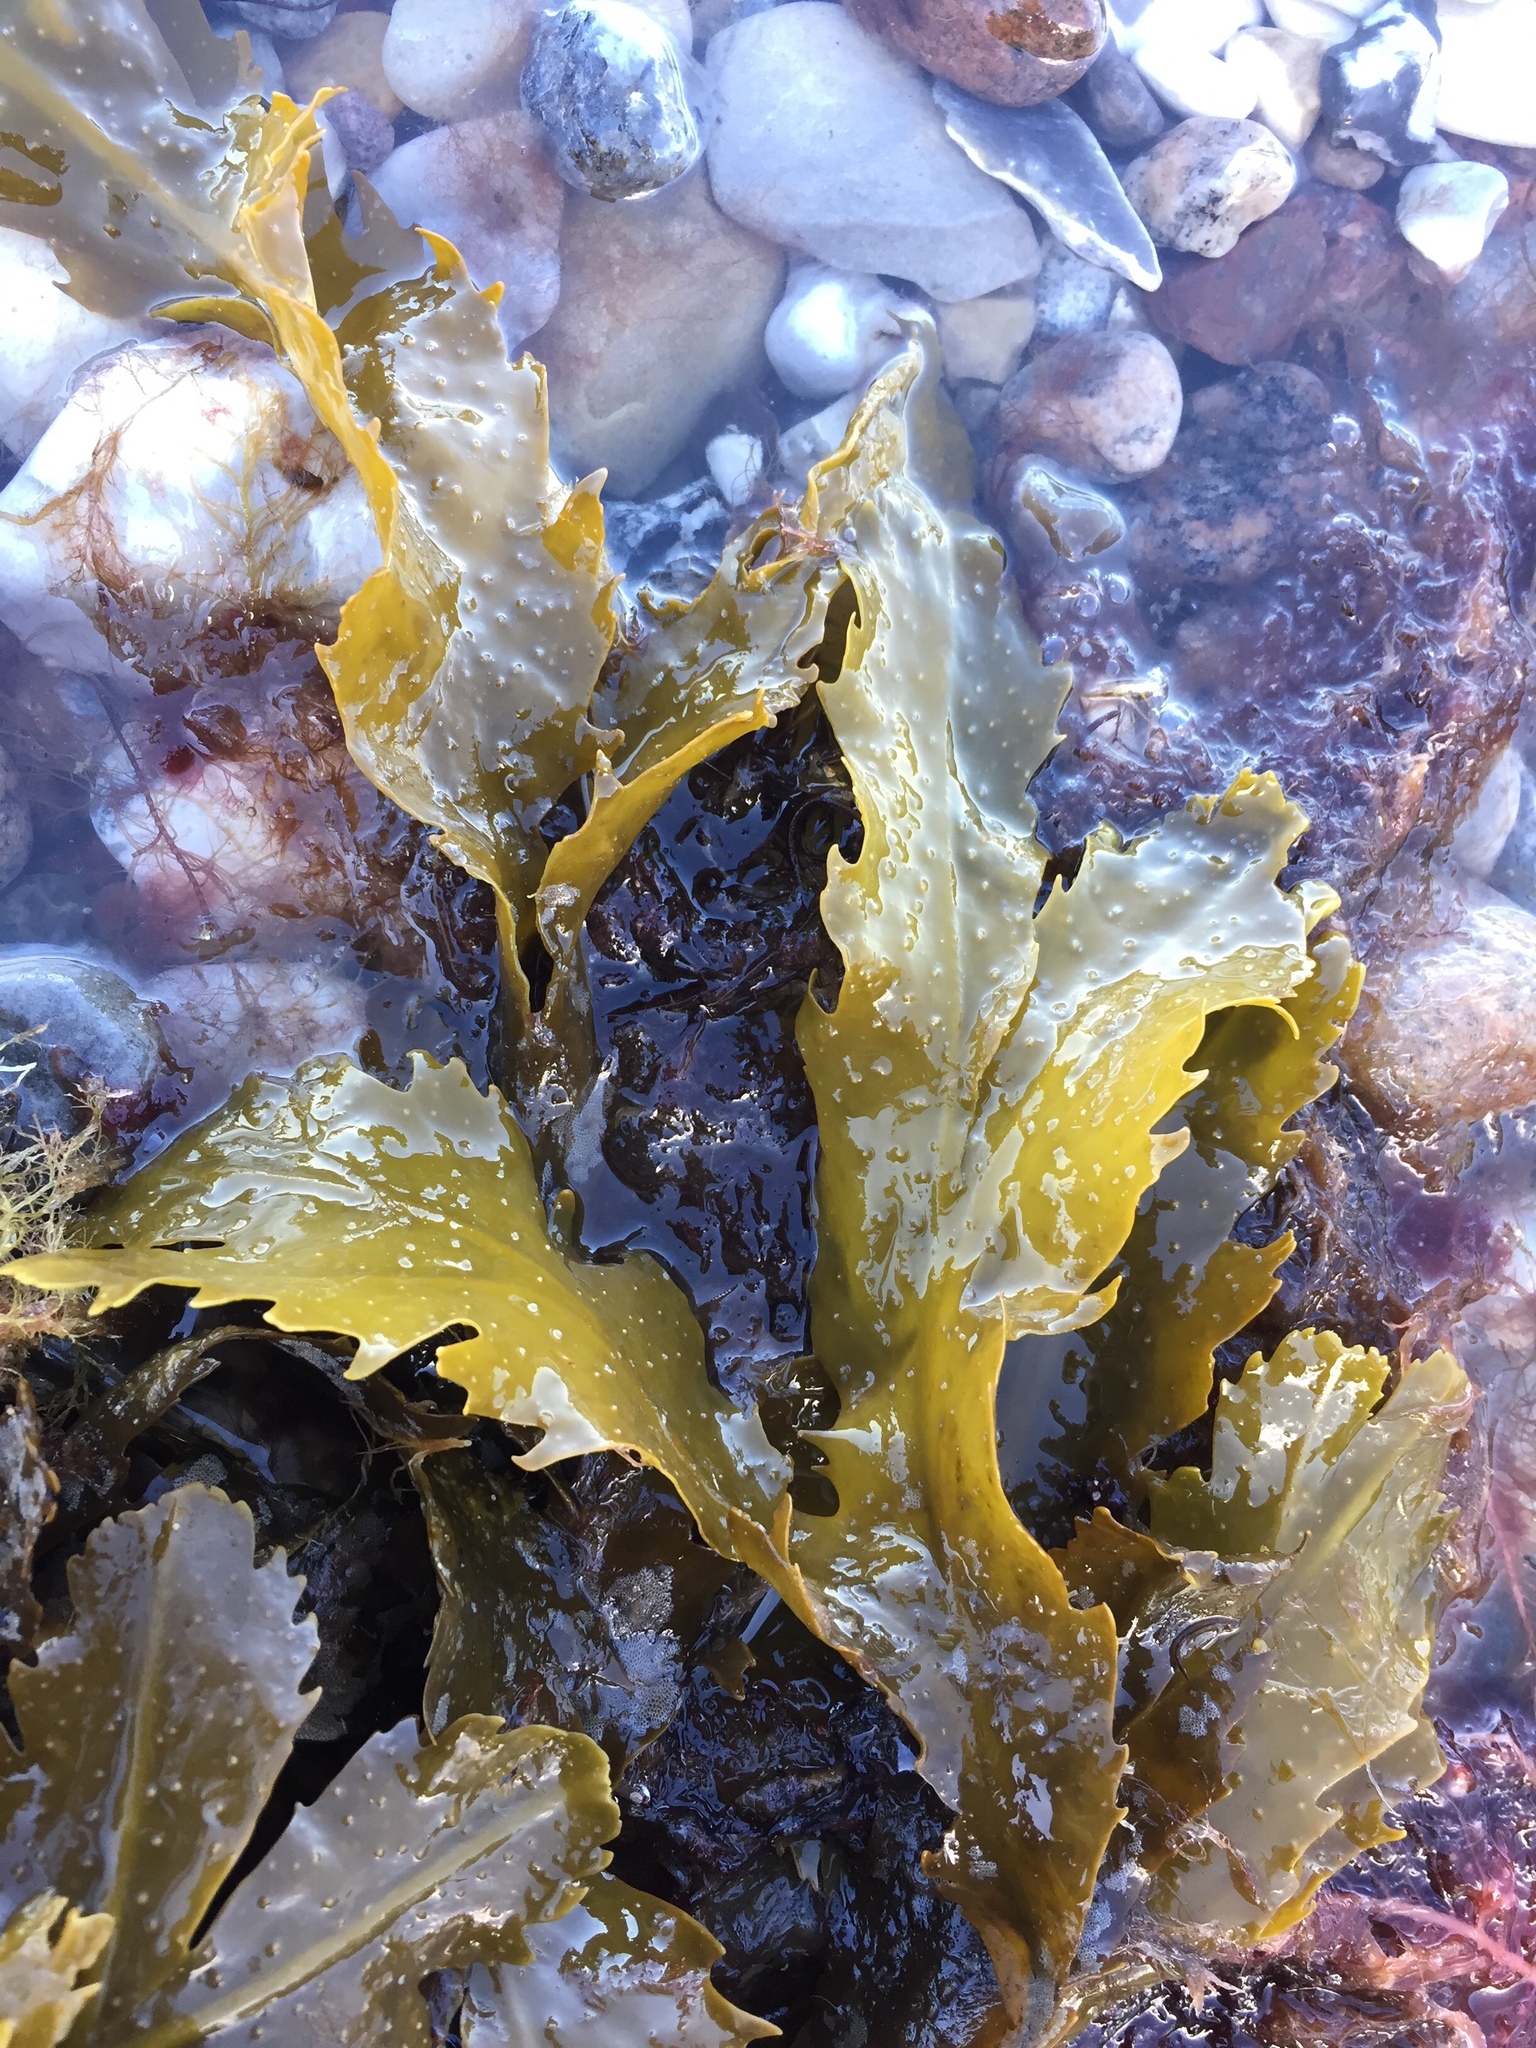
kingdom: Chromista
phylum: Ochrophyta
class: Phaeophyceae
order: Fucales
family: Fucaceae
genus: Fucus
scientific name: Fucus serratus
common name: Toothed wrack
